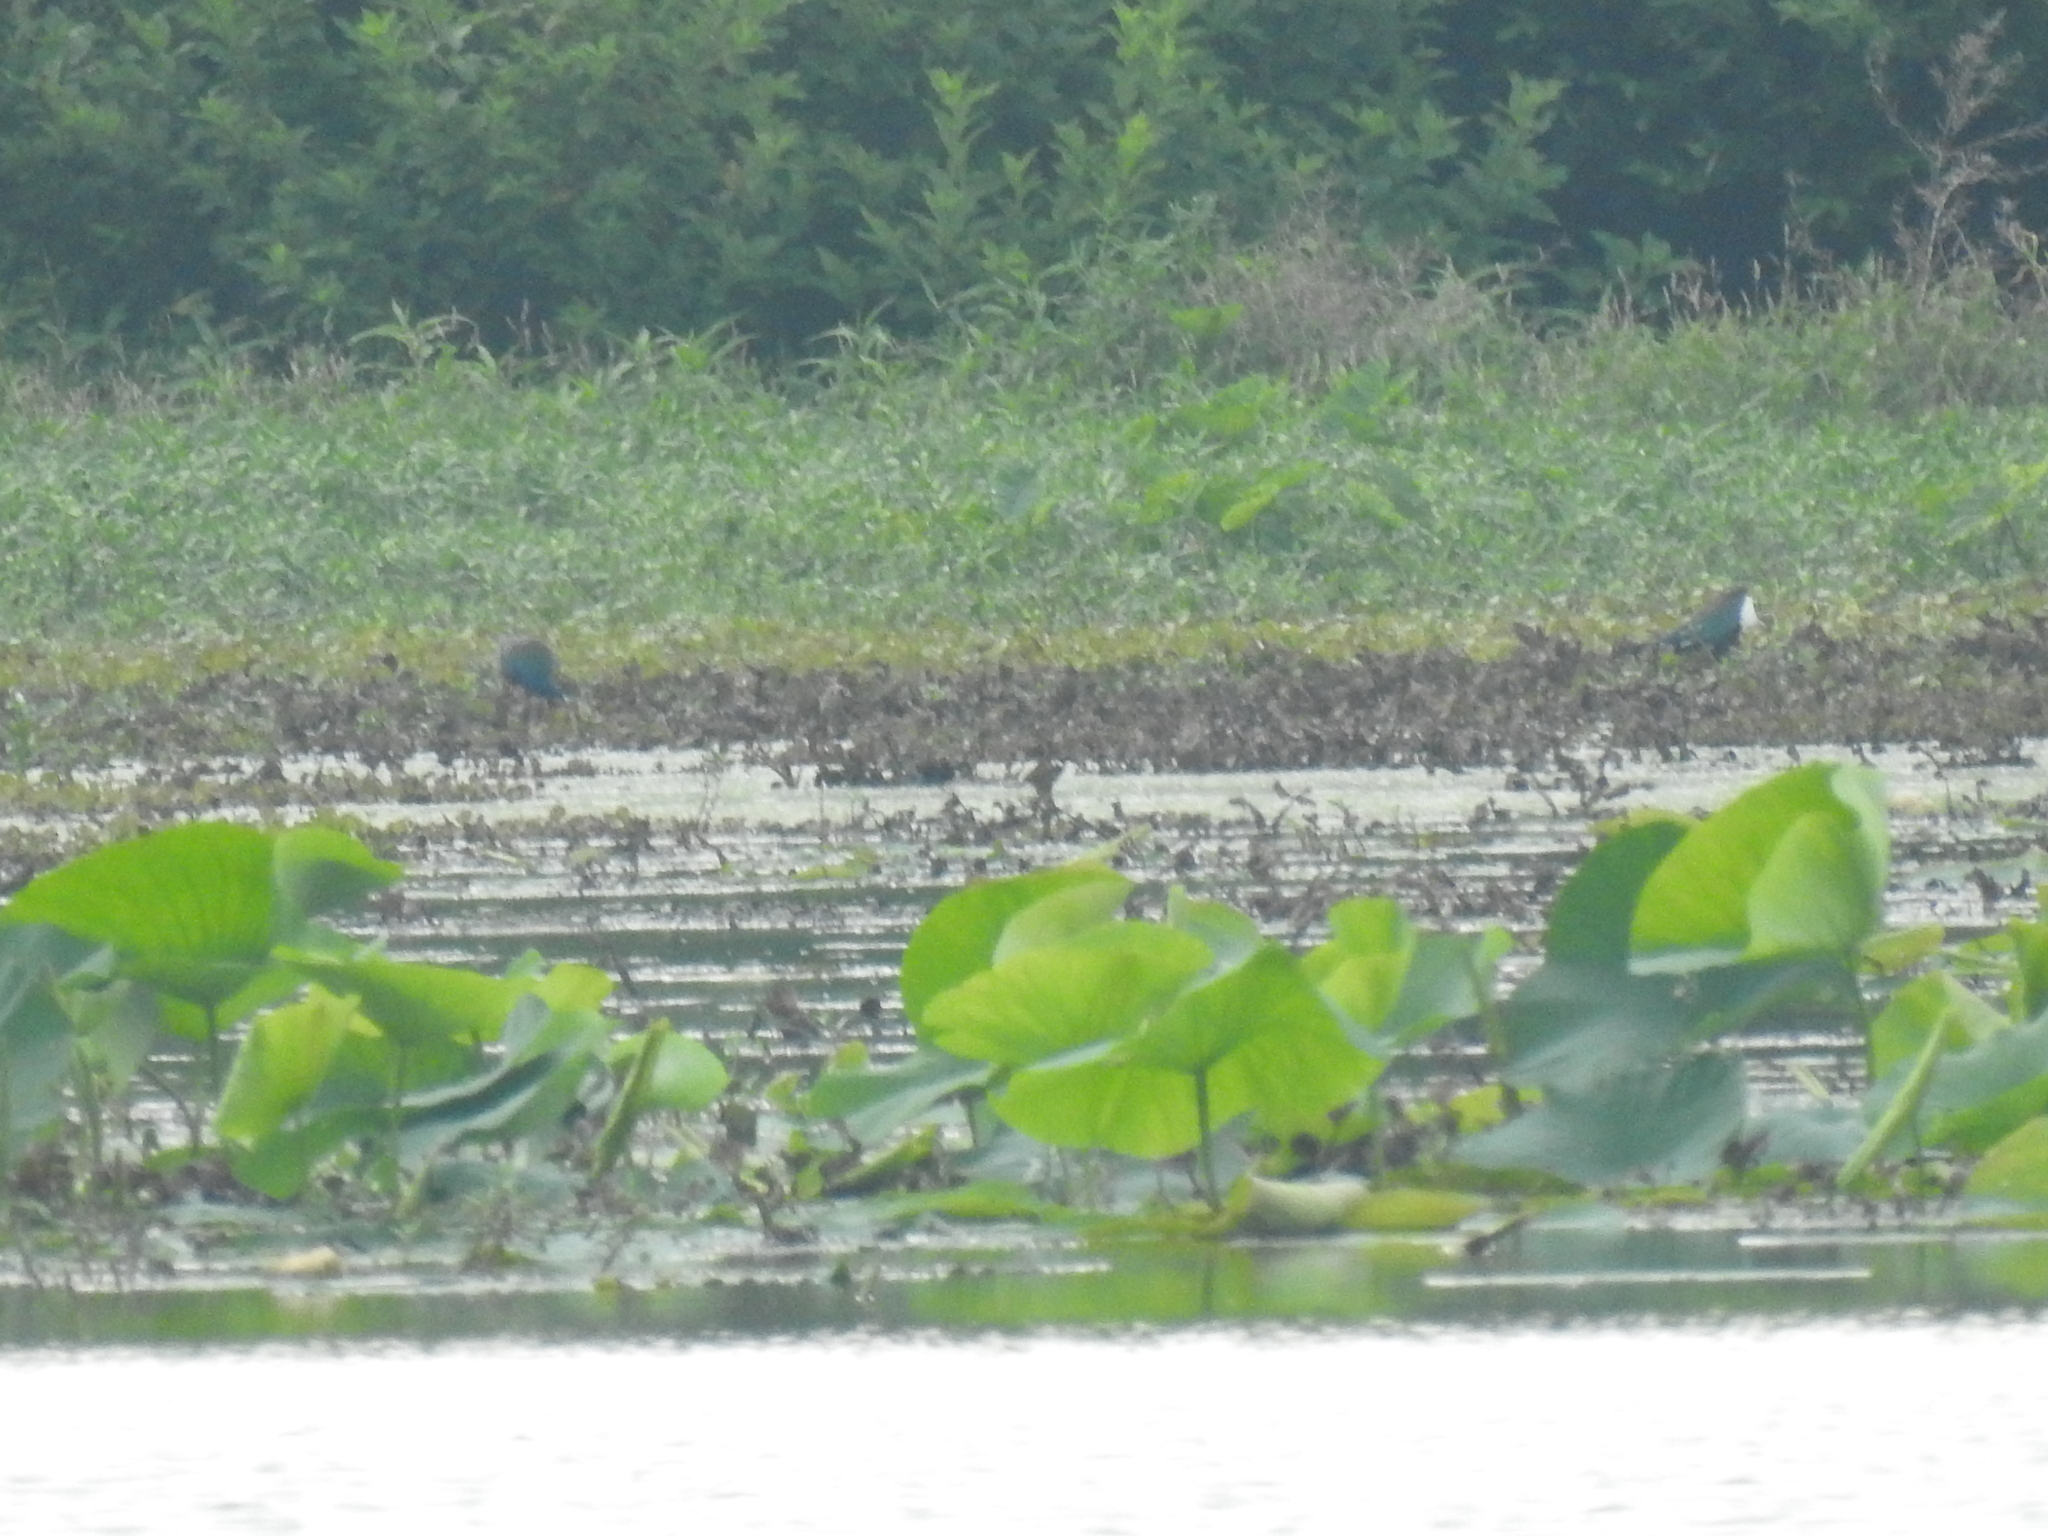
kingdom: Animalia
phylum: Chordata
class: Aves
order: Gruiformes
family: Rallidae
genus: Porphyrio
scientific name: Porphyrio martinica
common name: Purple gallinule
